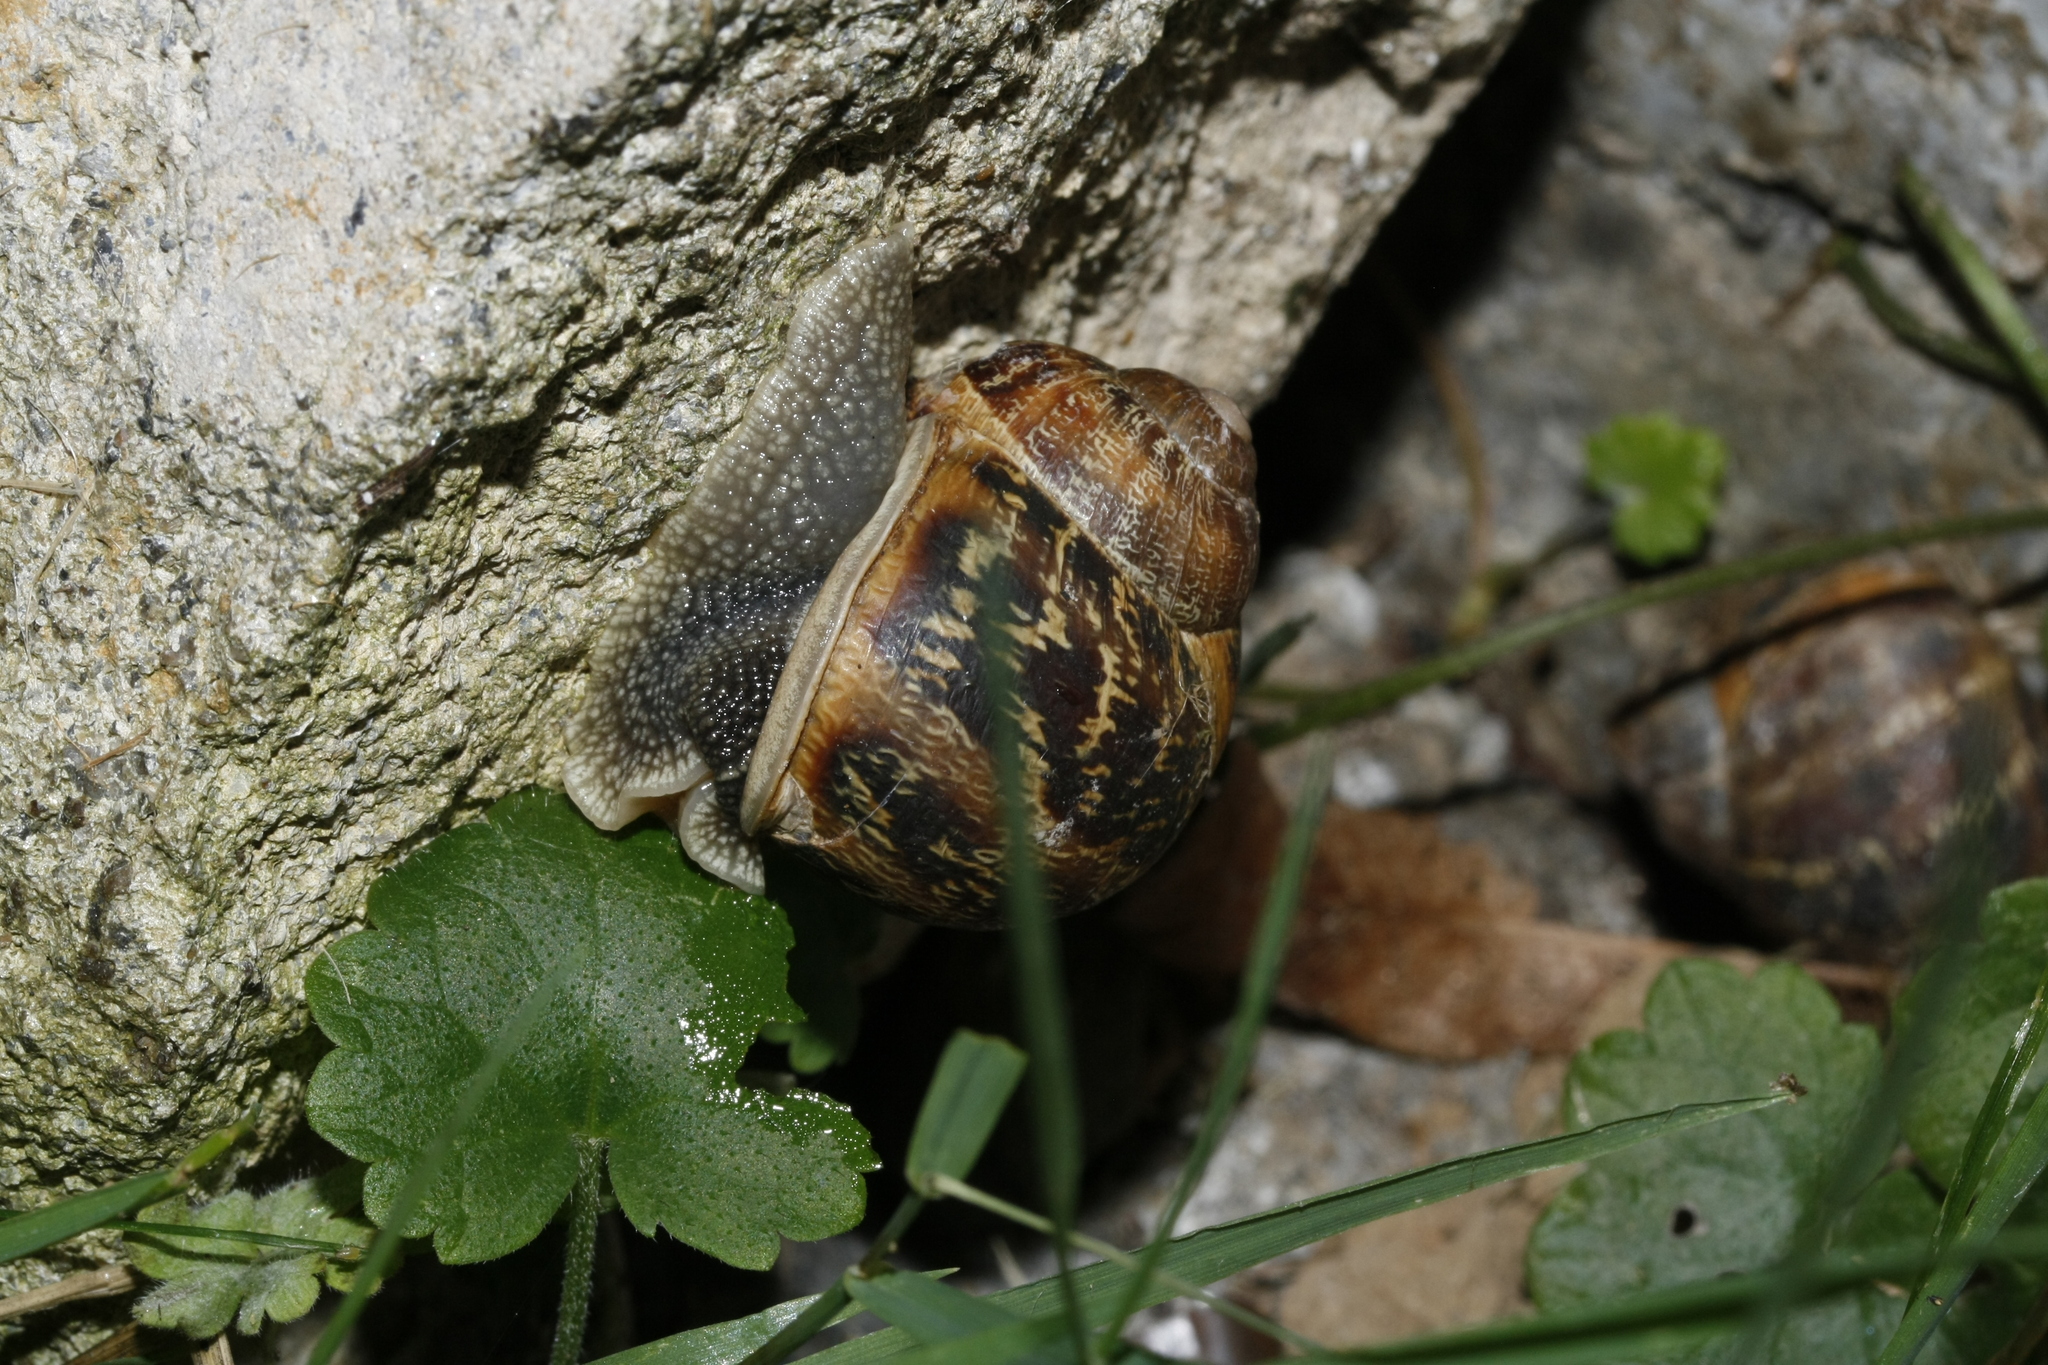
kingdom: Animalia
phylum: Mollusca
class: Gastropoda
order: Stylommatophora
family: Helicidae
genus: Cornu
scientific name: Cornu aspersum
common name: Brown garden snail
